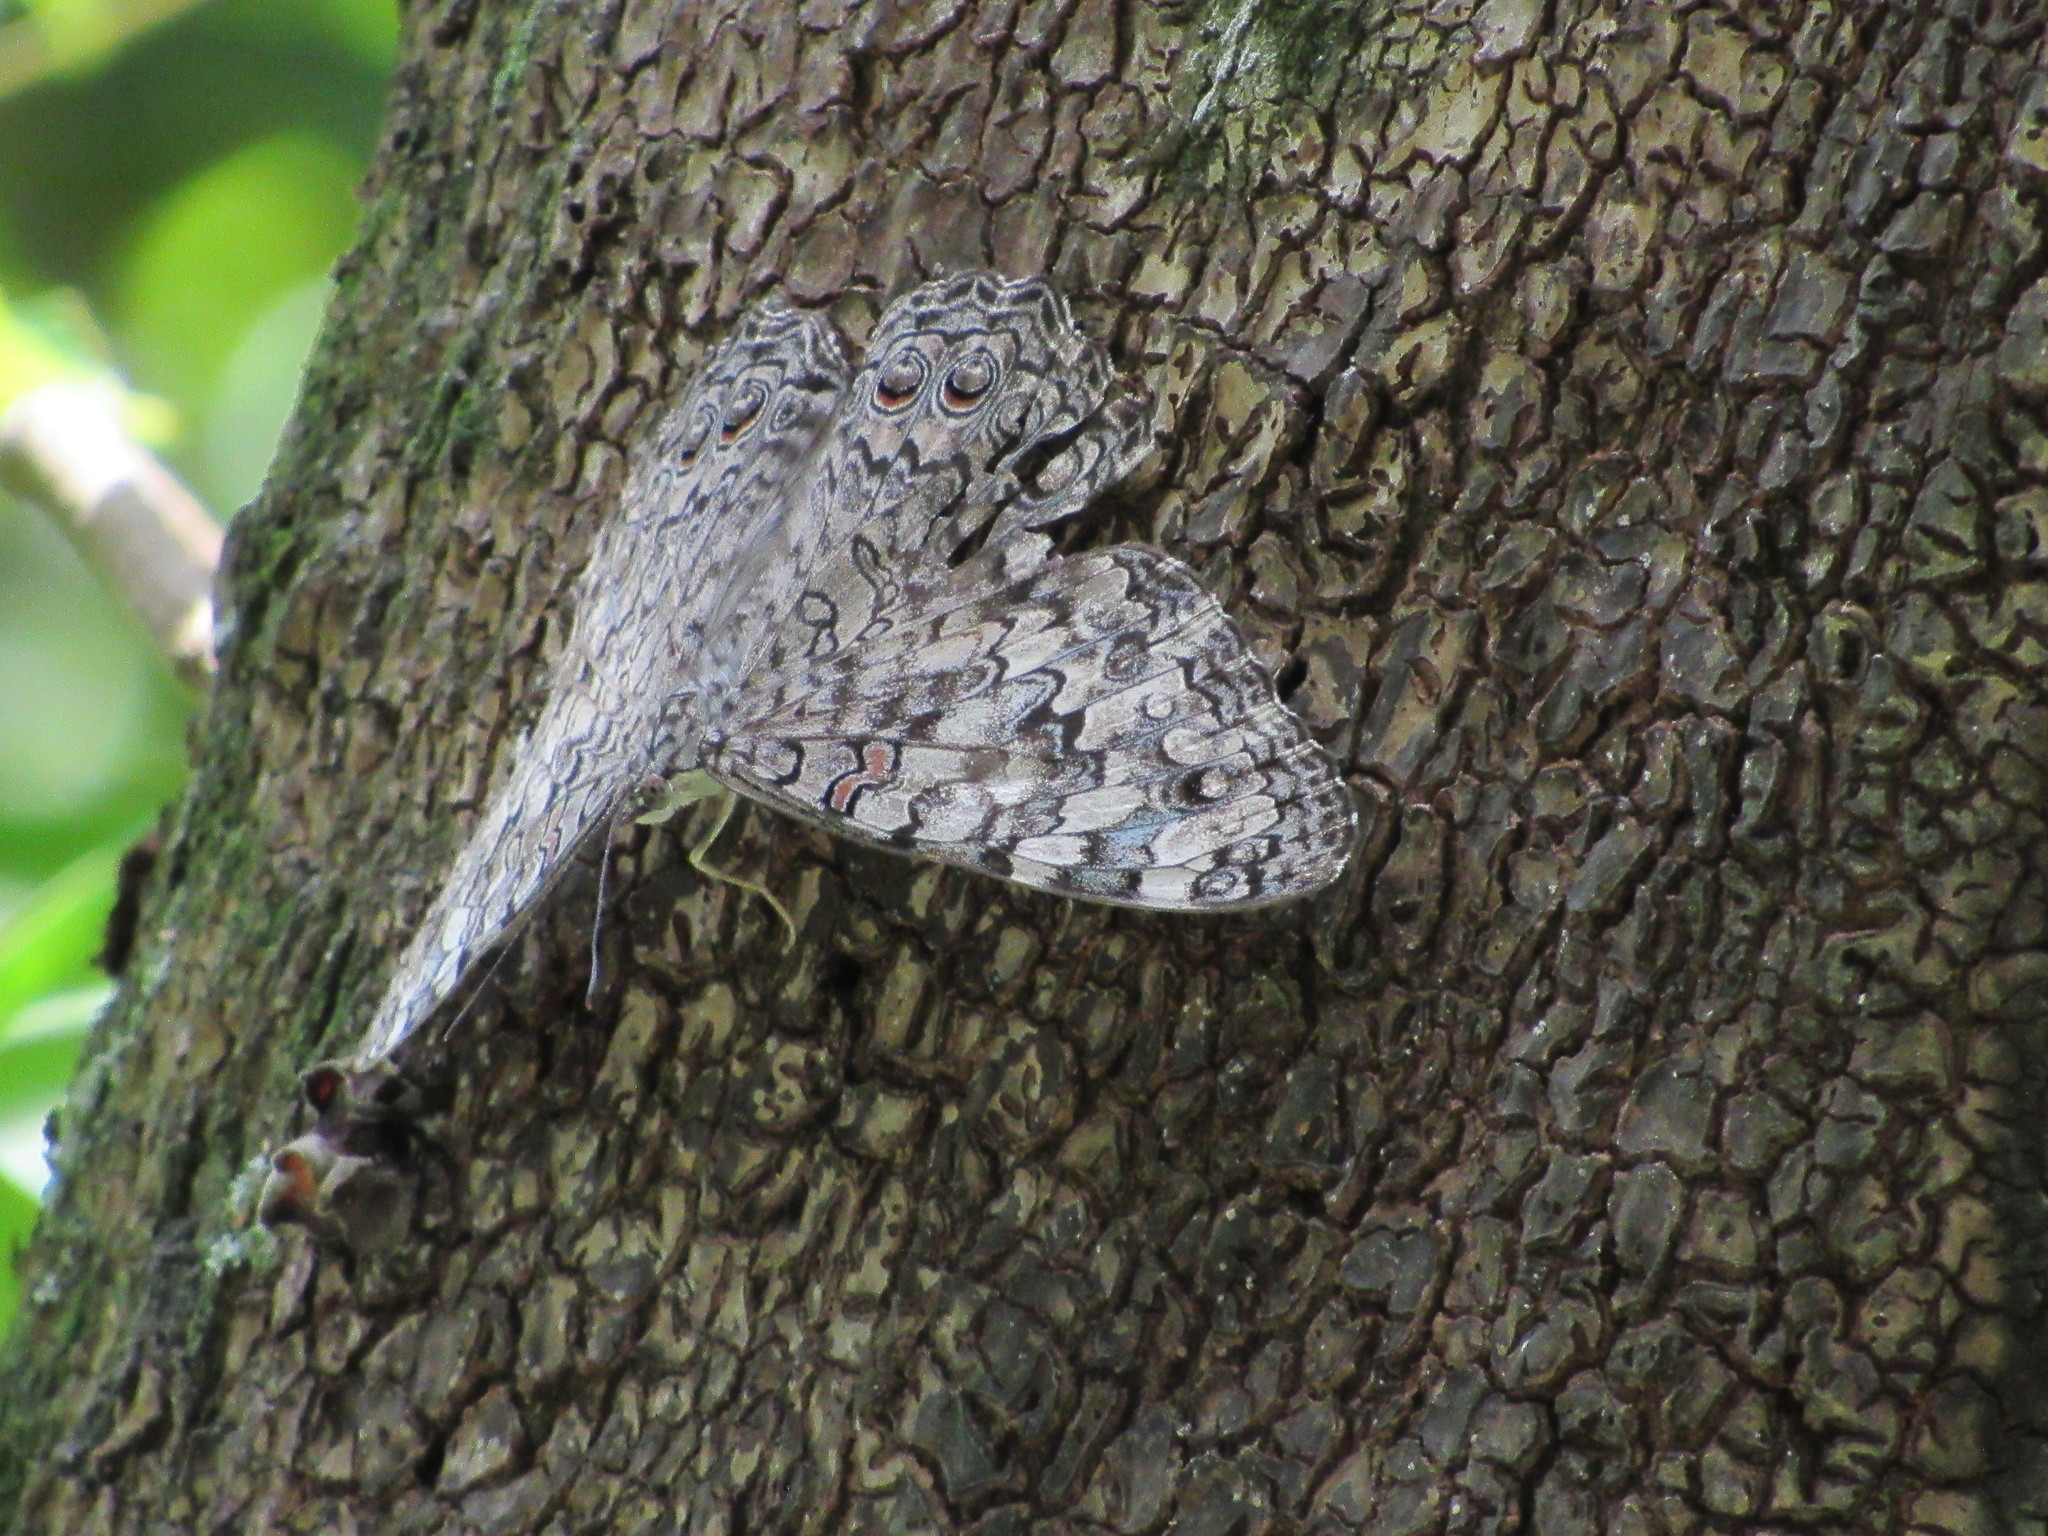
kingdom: Animalia
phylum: Arthropoda
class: Insecta
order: Lepidoptera
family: Nymphalidae
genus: Hamadryas
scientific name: Hamadryas februa
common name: Gray cracker
